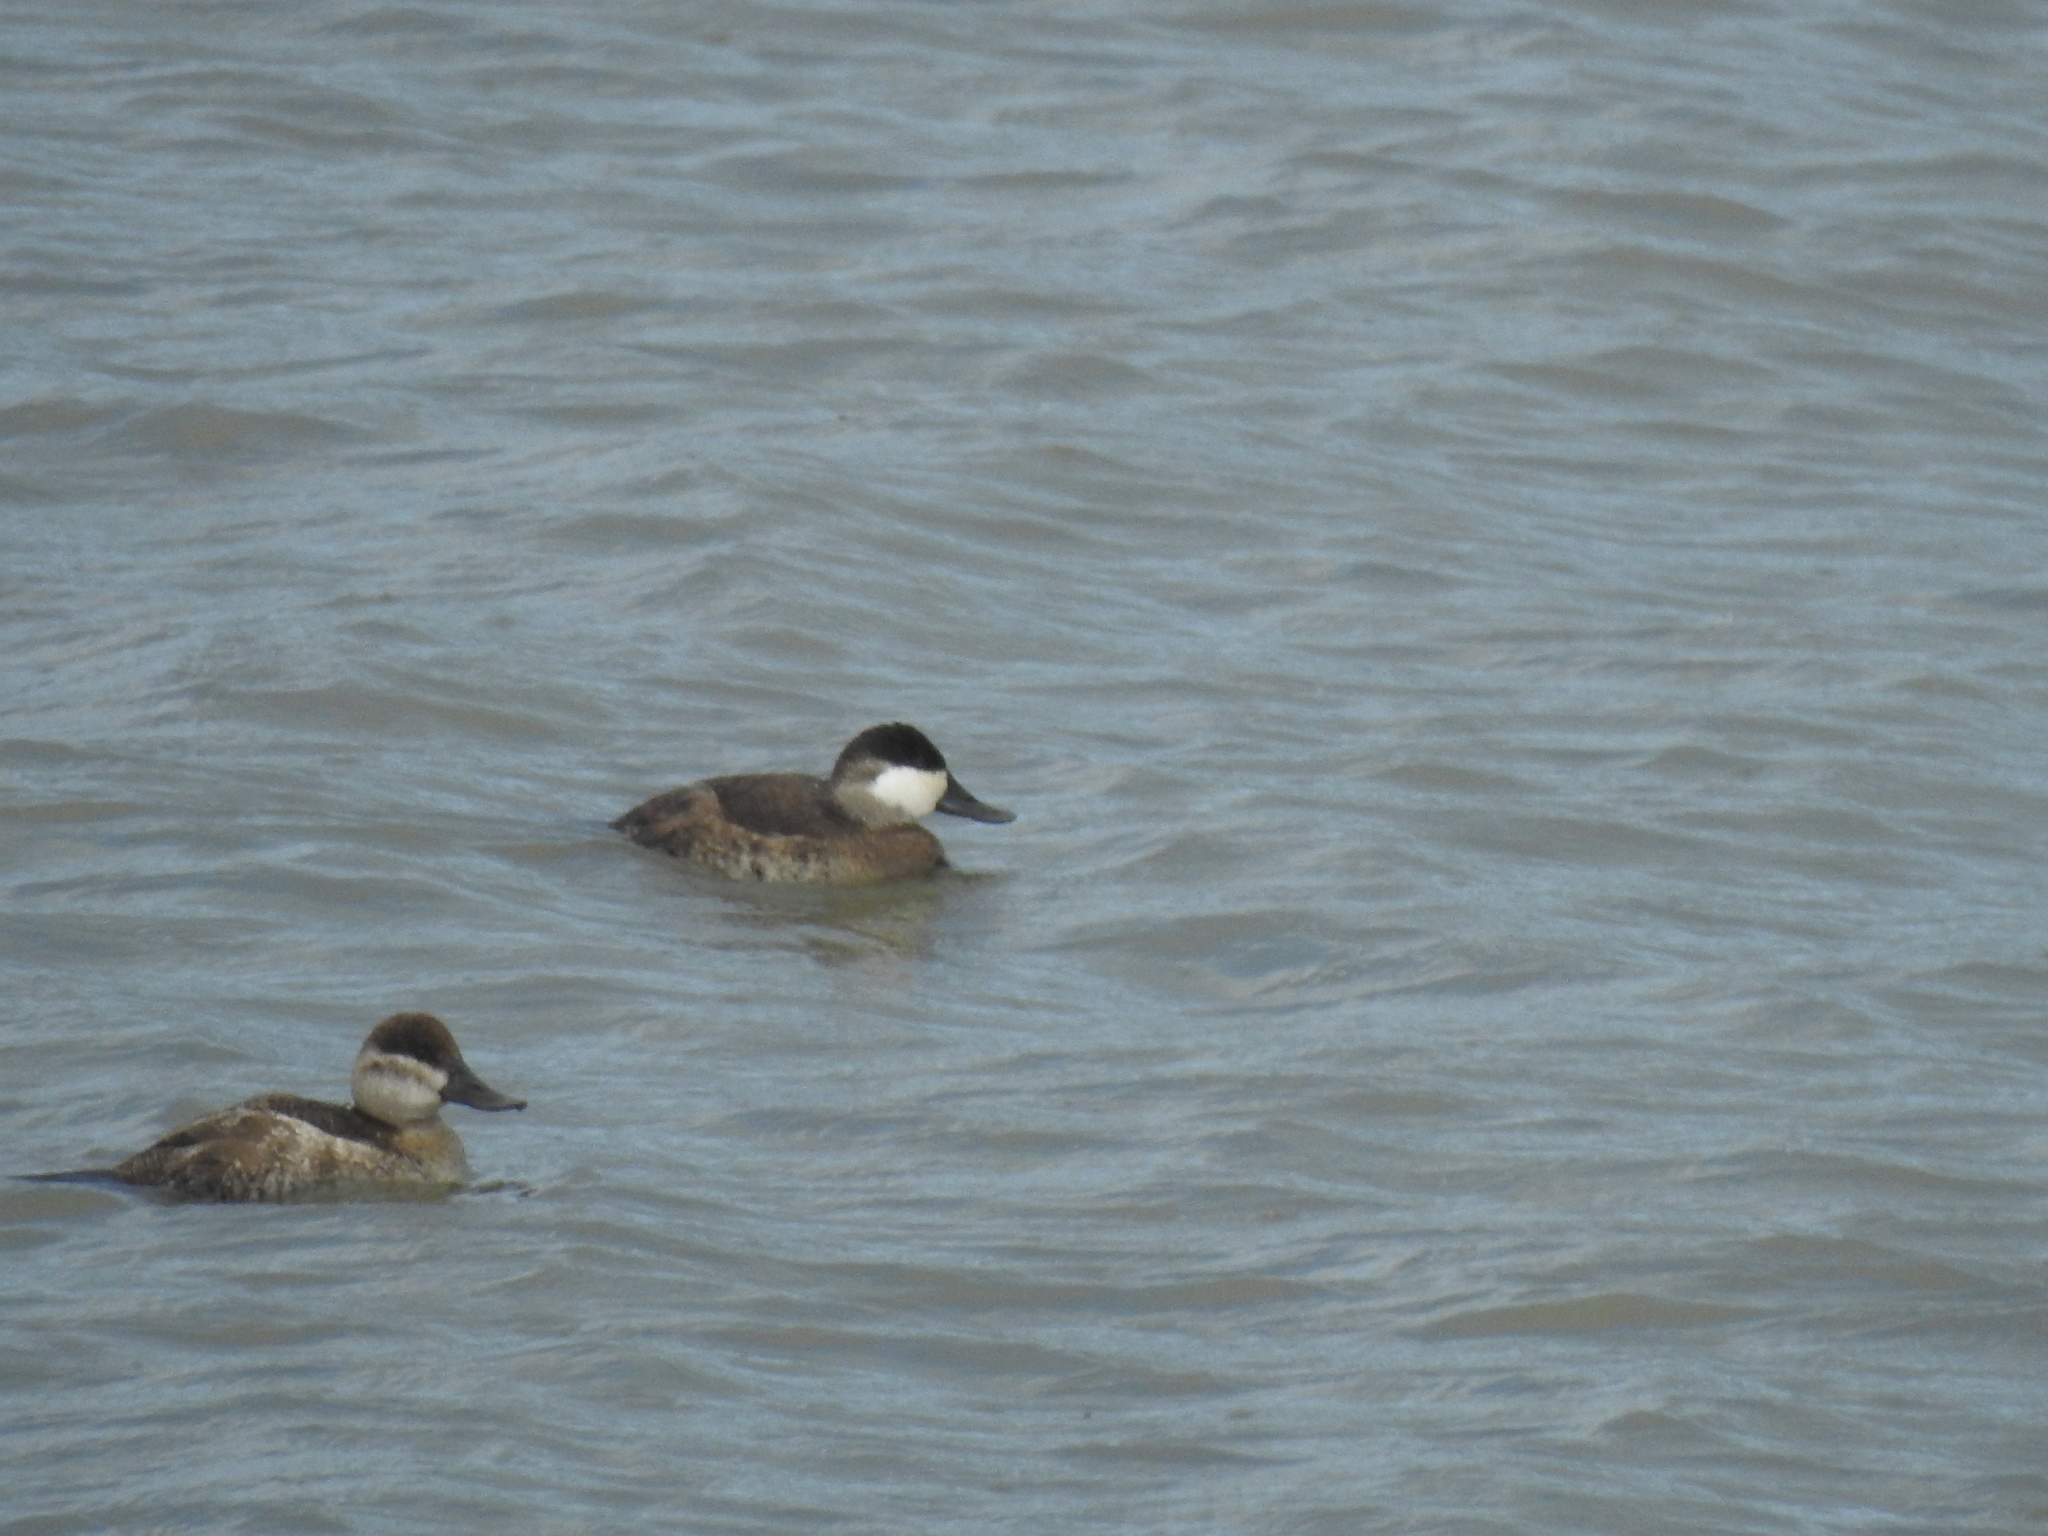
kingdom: Animalia
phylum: Chordata
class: Aves
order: Anseriformes
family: Anatidae
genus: Oxyura
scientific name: Oxyura jamaicensis
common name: Ruddy duck
